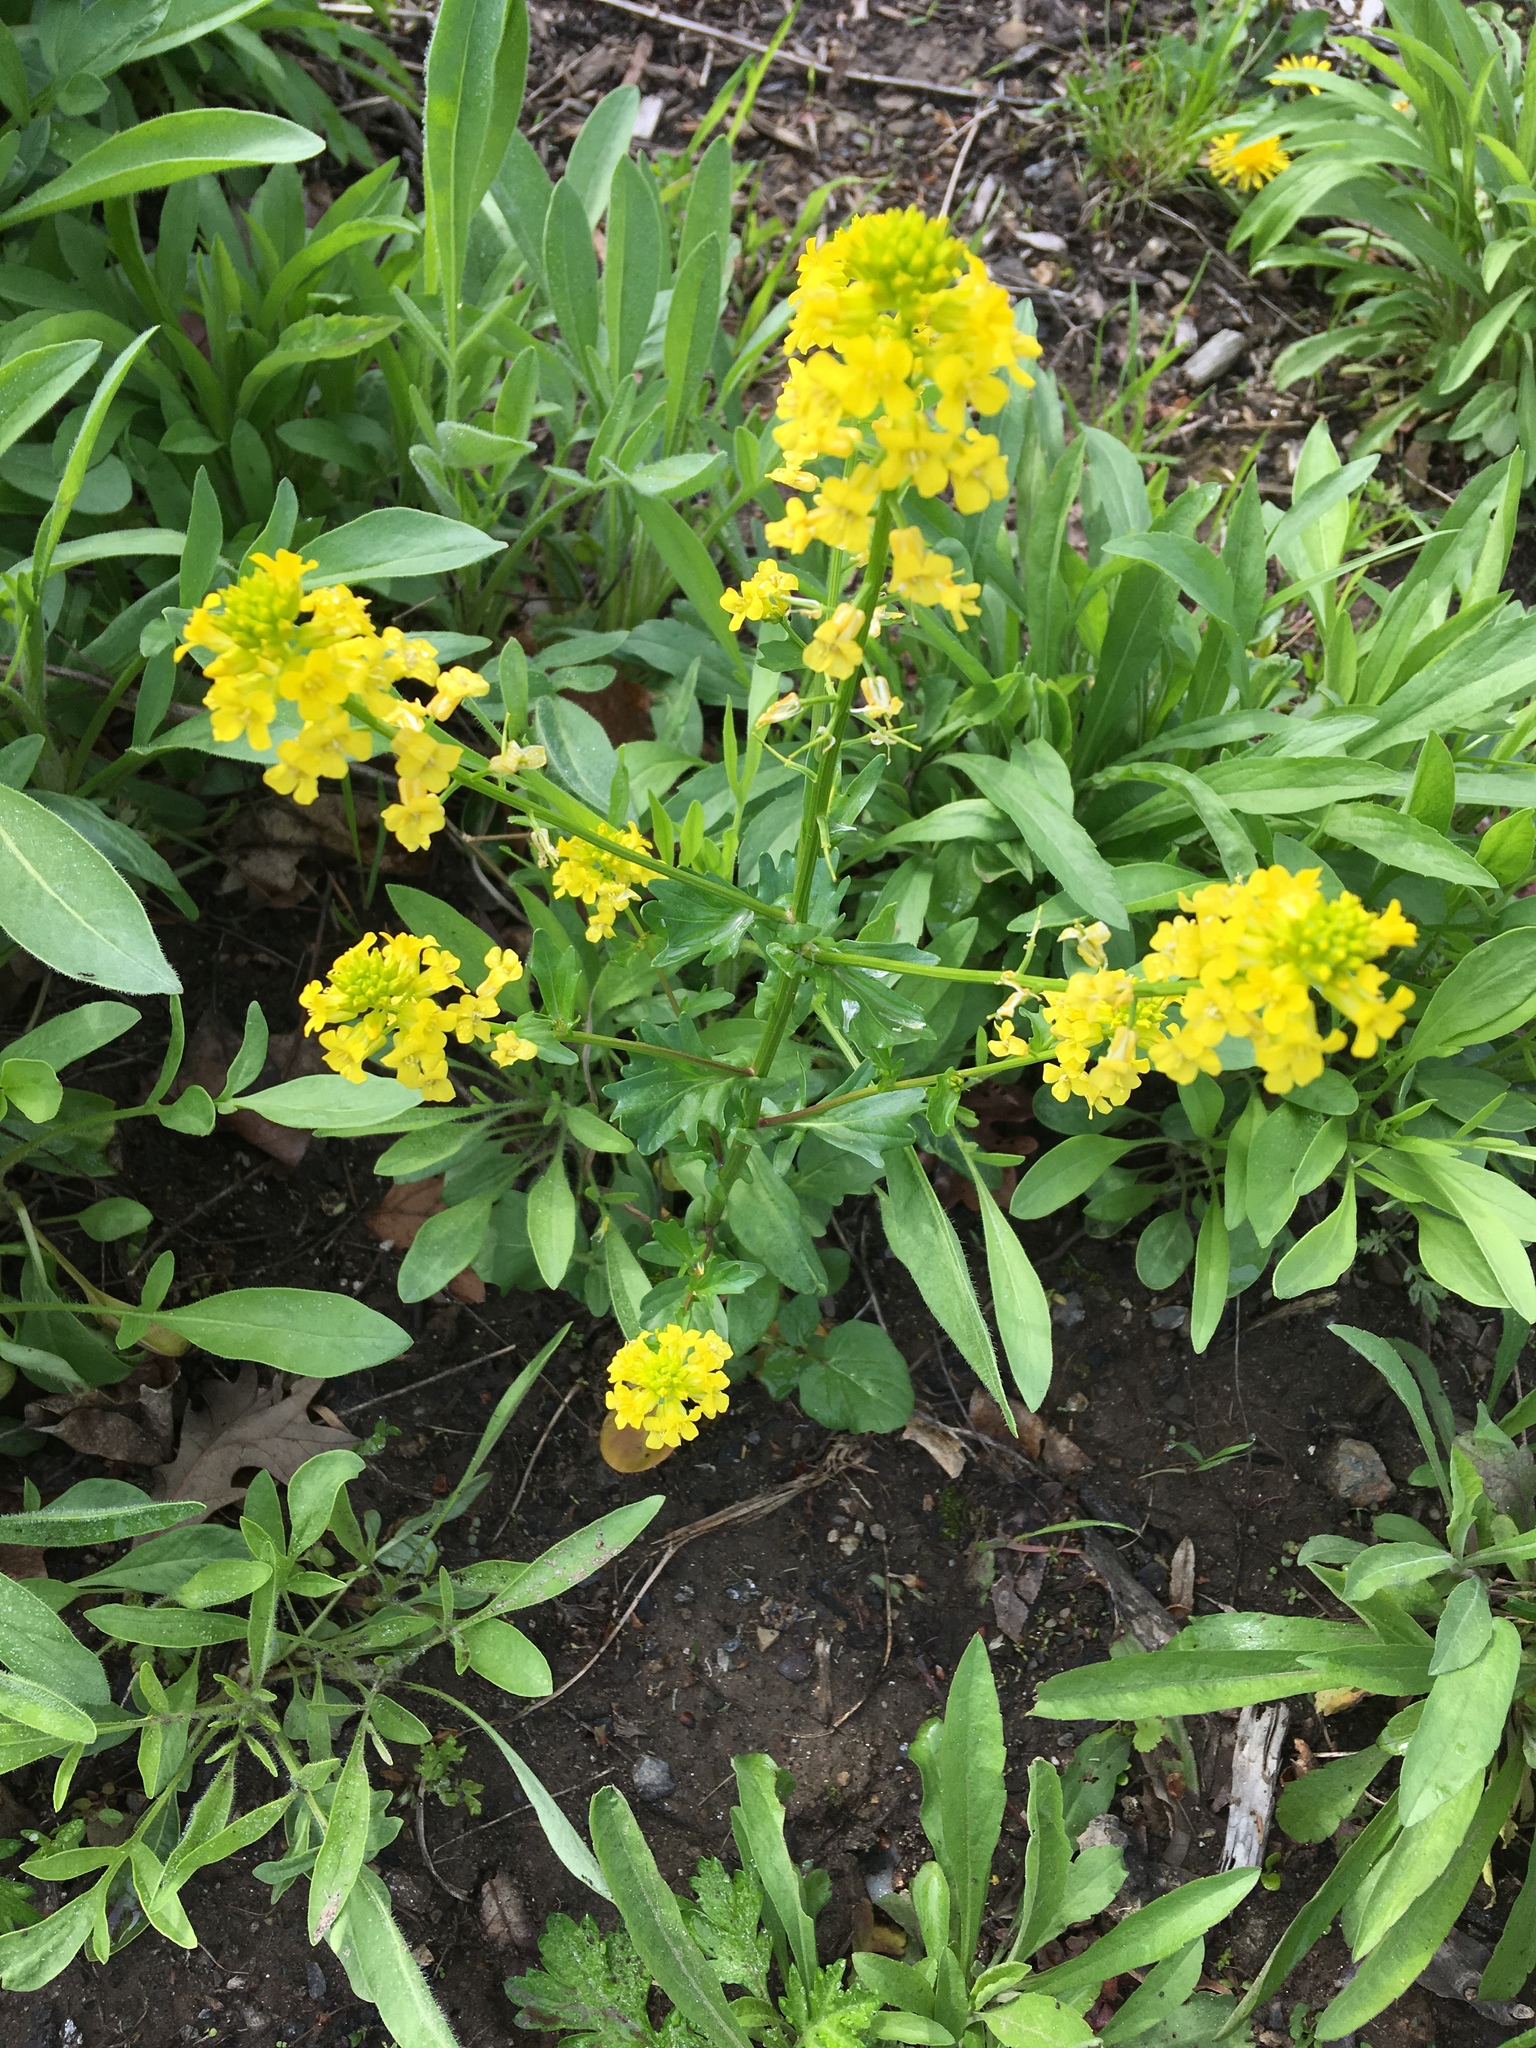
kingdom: Plantae
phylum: Tracheophyta
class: Magnoliopsida
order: Brassicales
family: Brassicaceae
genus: Barbarea
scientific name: Barbarea vulgaris
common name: Cressy-greens
